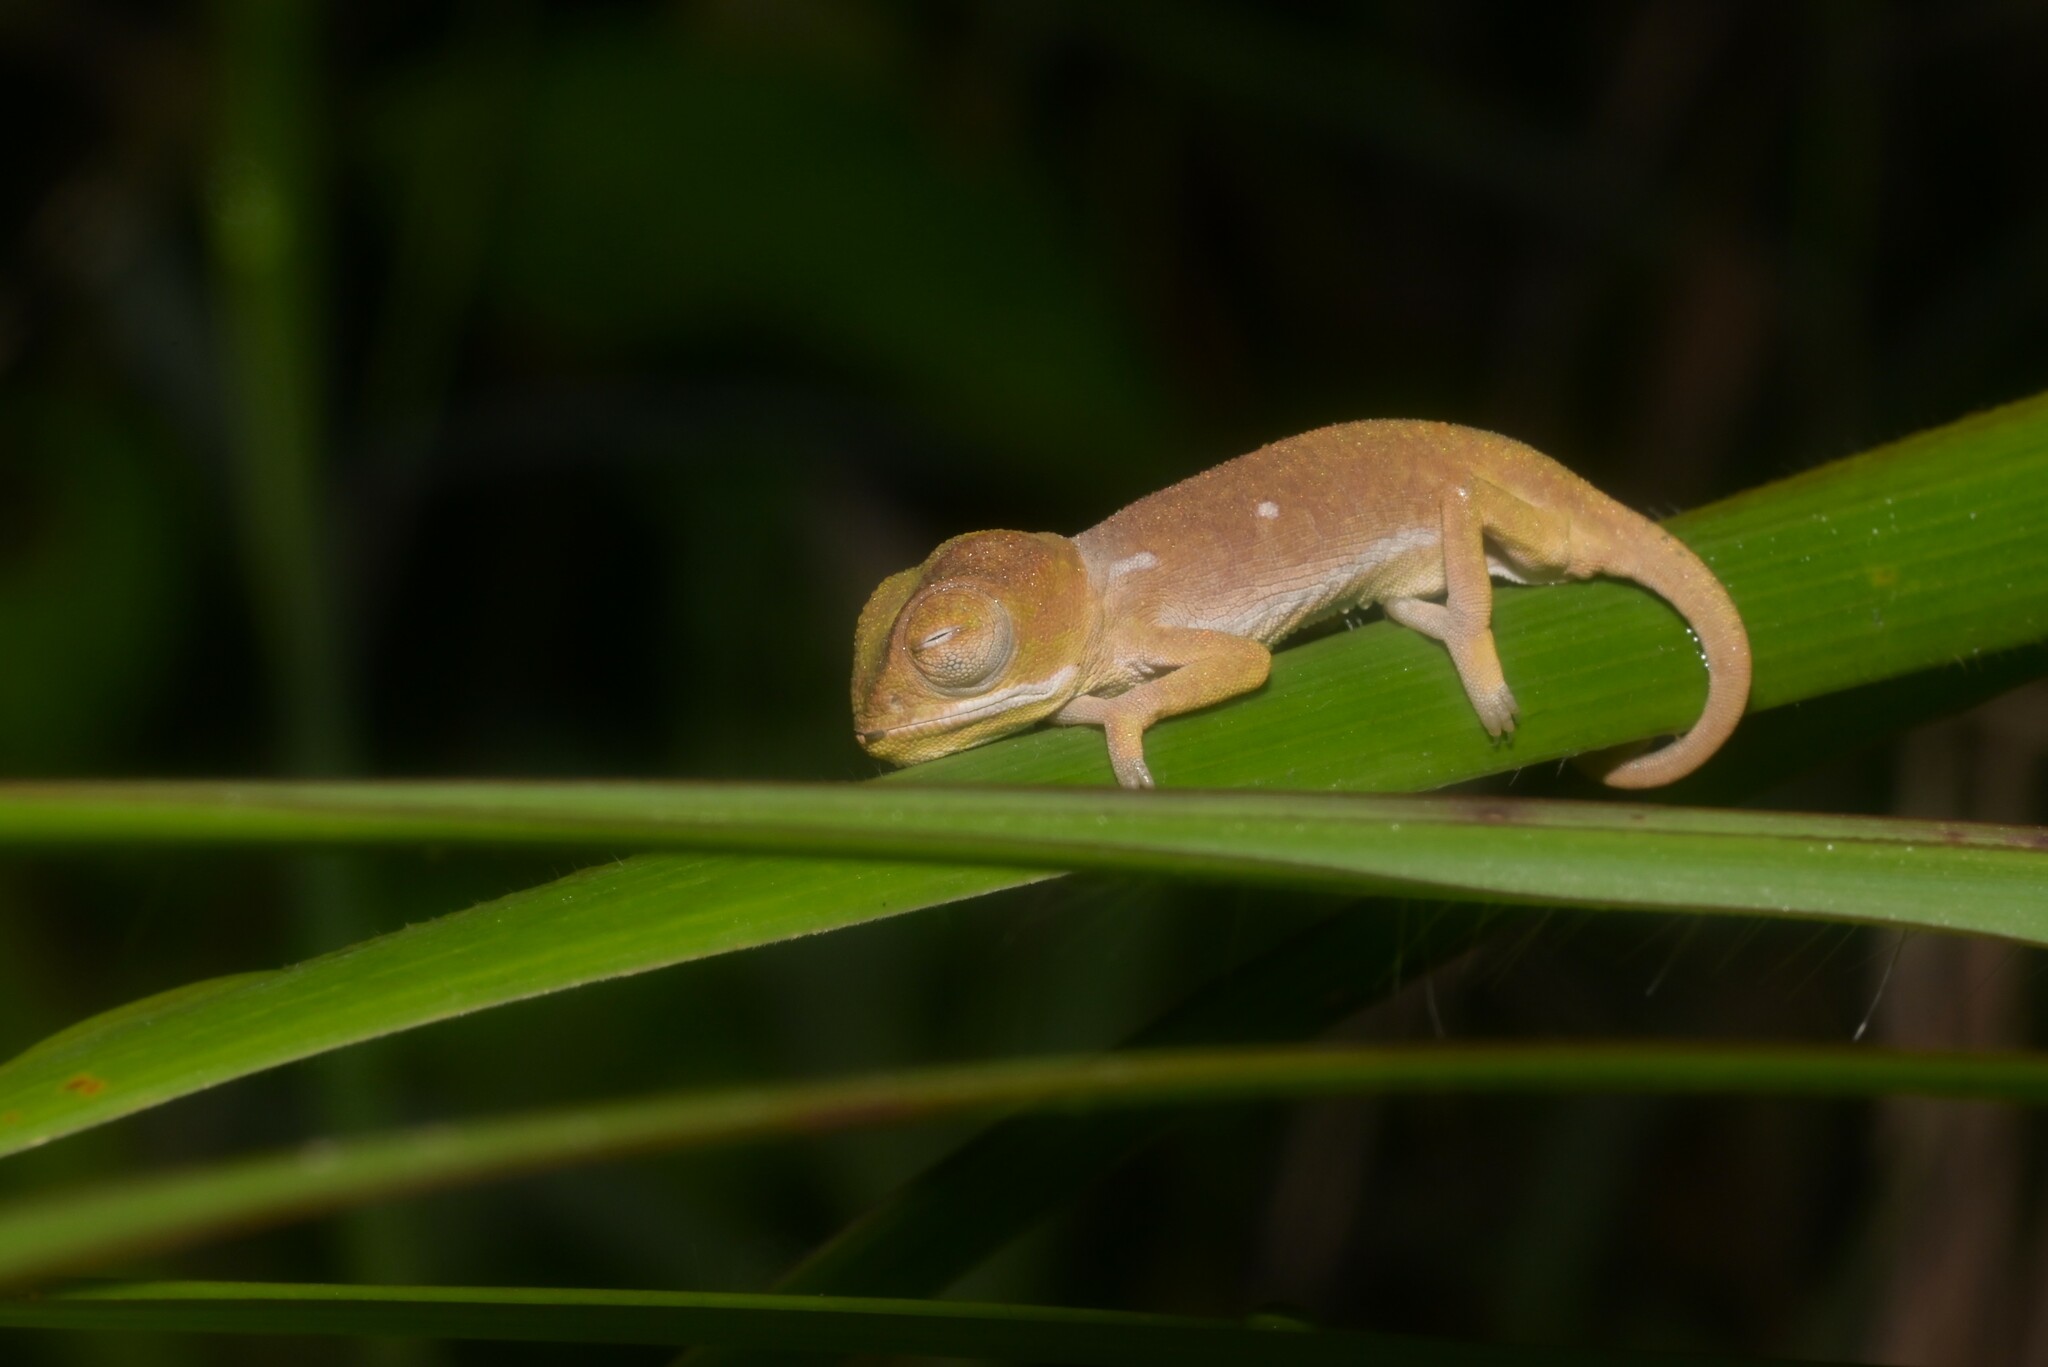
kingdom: Animalia
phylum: Chordata
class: Squamata
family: Chamaeleonidae
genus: Chamaeleo
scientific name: Chamaeleo dilepis
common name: Flapneck chameleon
